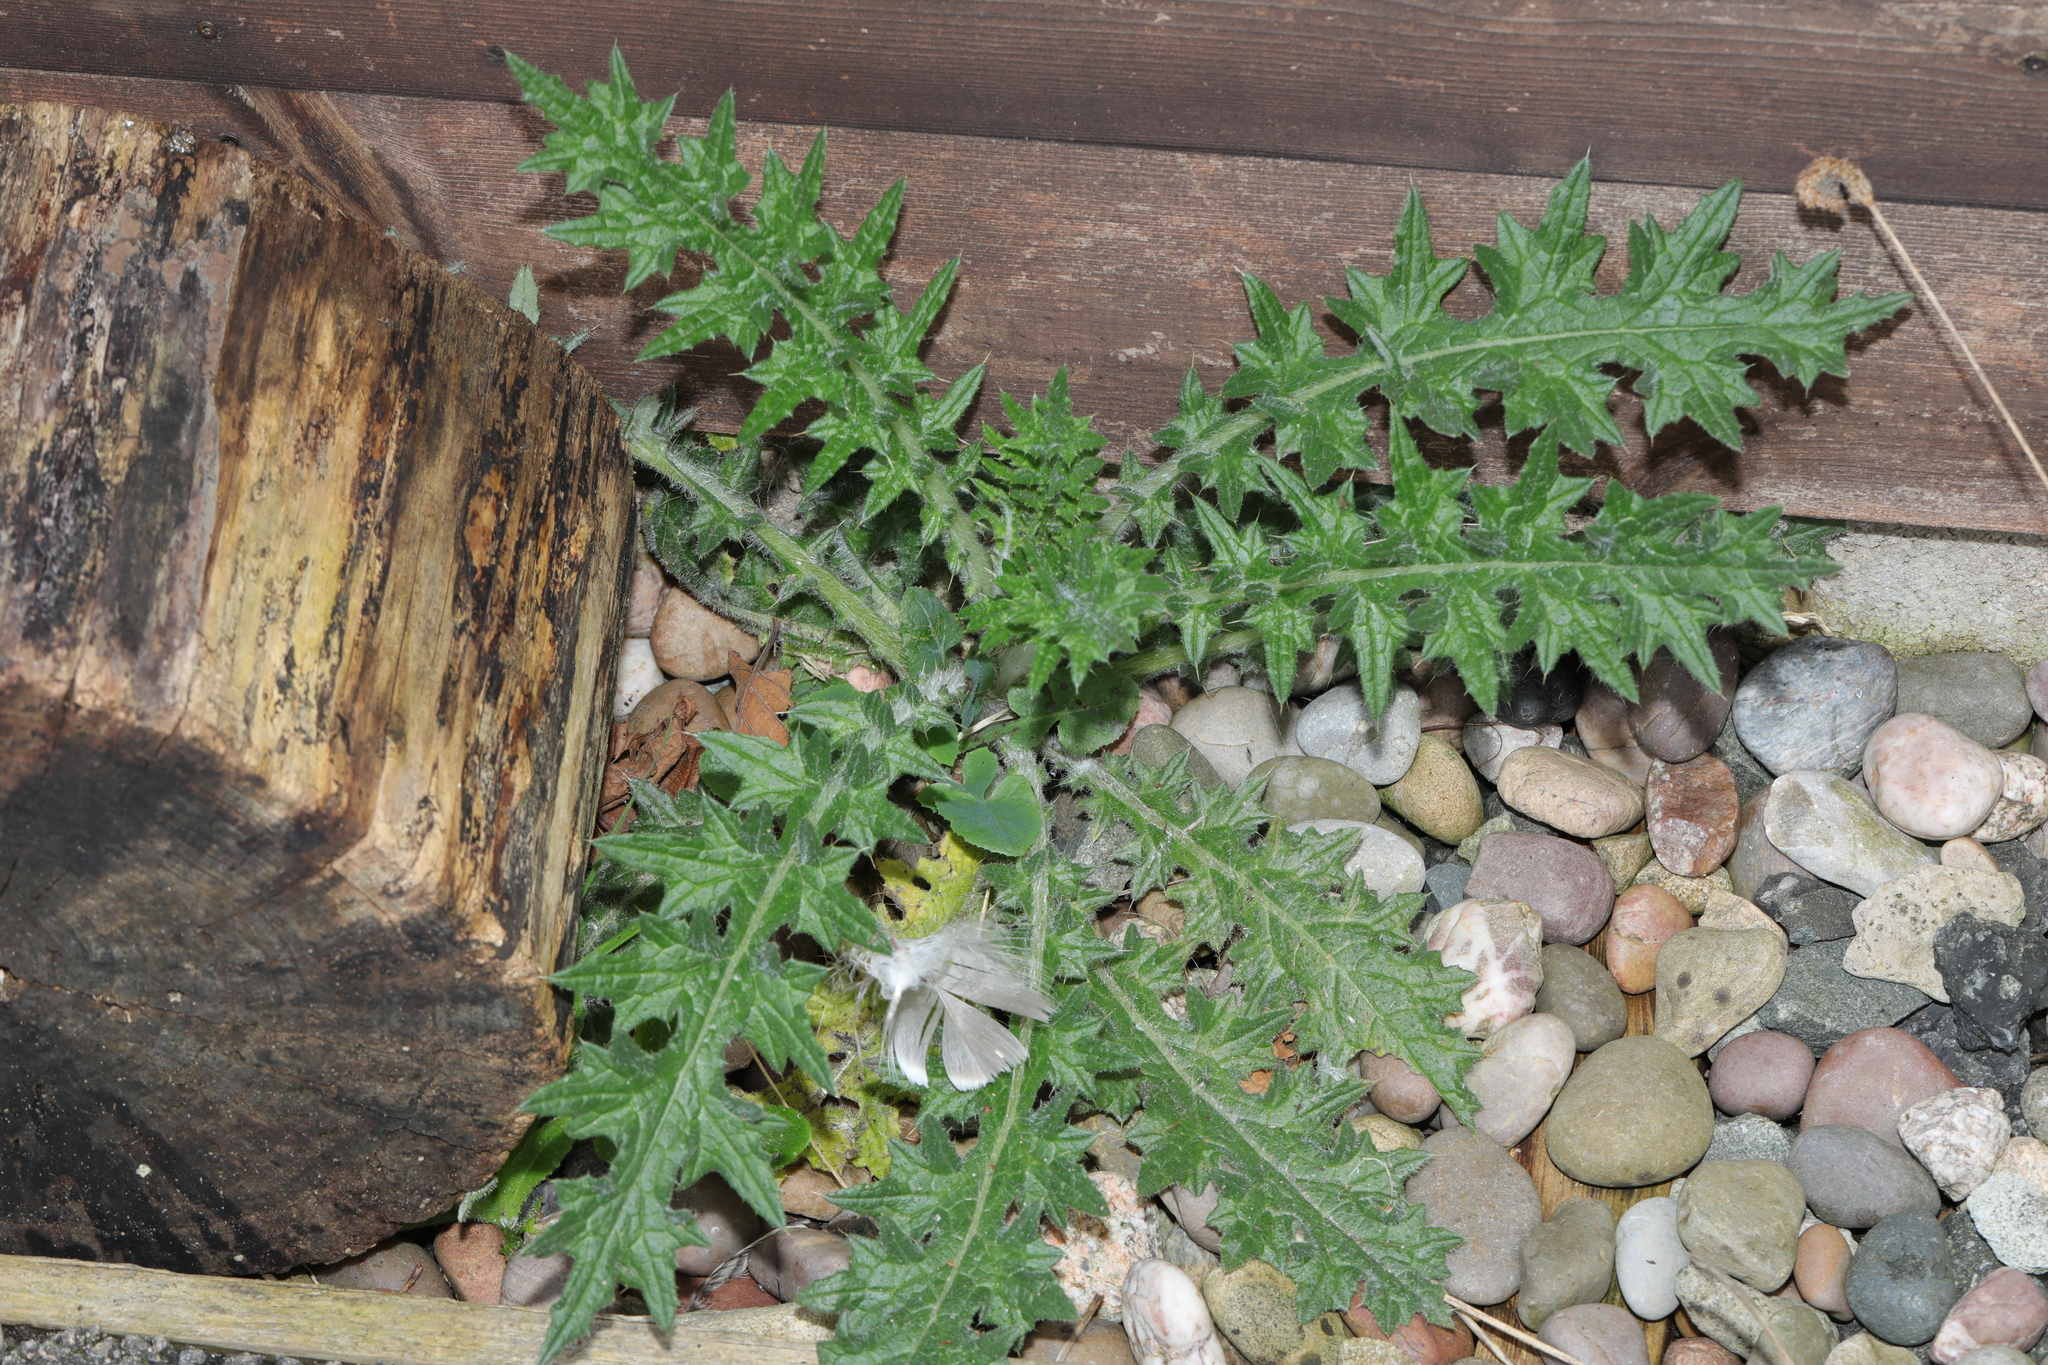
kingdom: Plantae
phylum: Tracheophyta
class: Magnoliopsida
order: Asterales
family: Asteraceae
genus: Cirsium
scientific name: Cirsium vulgare
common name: Bull thistle
